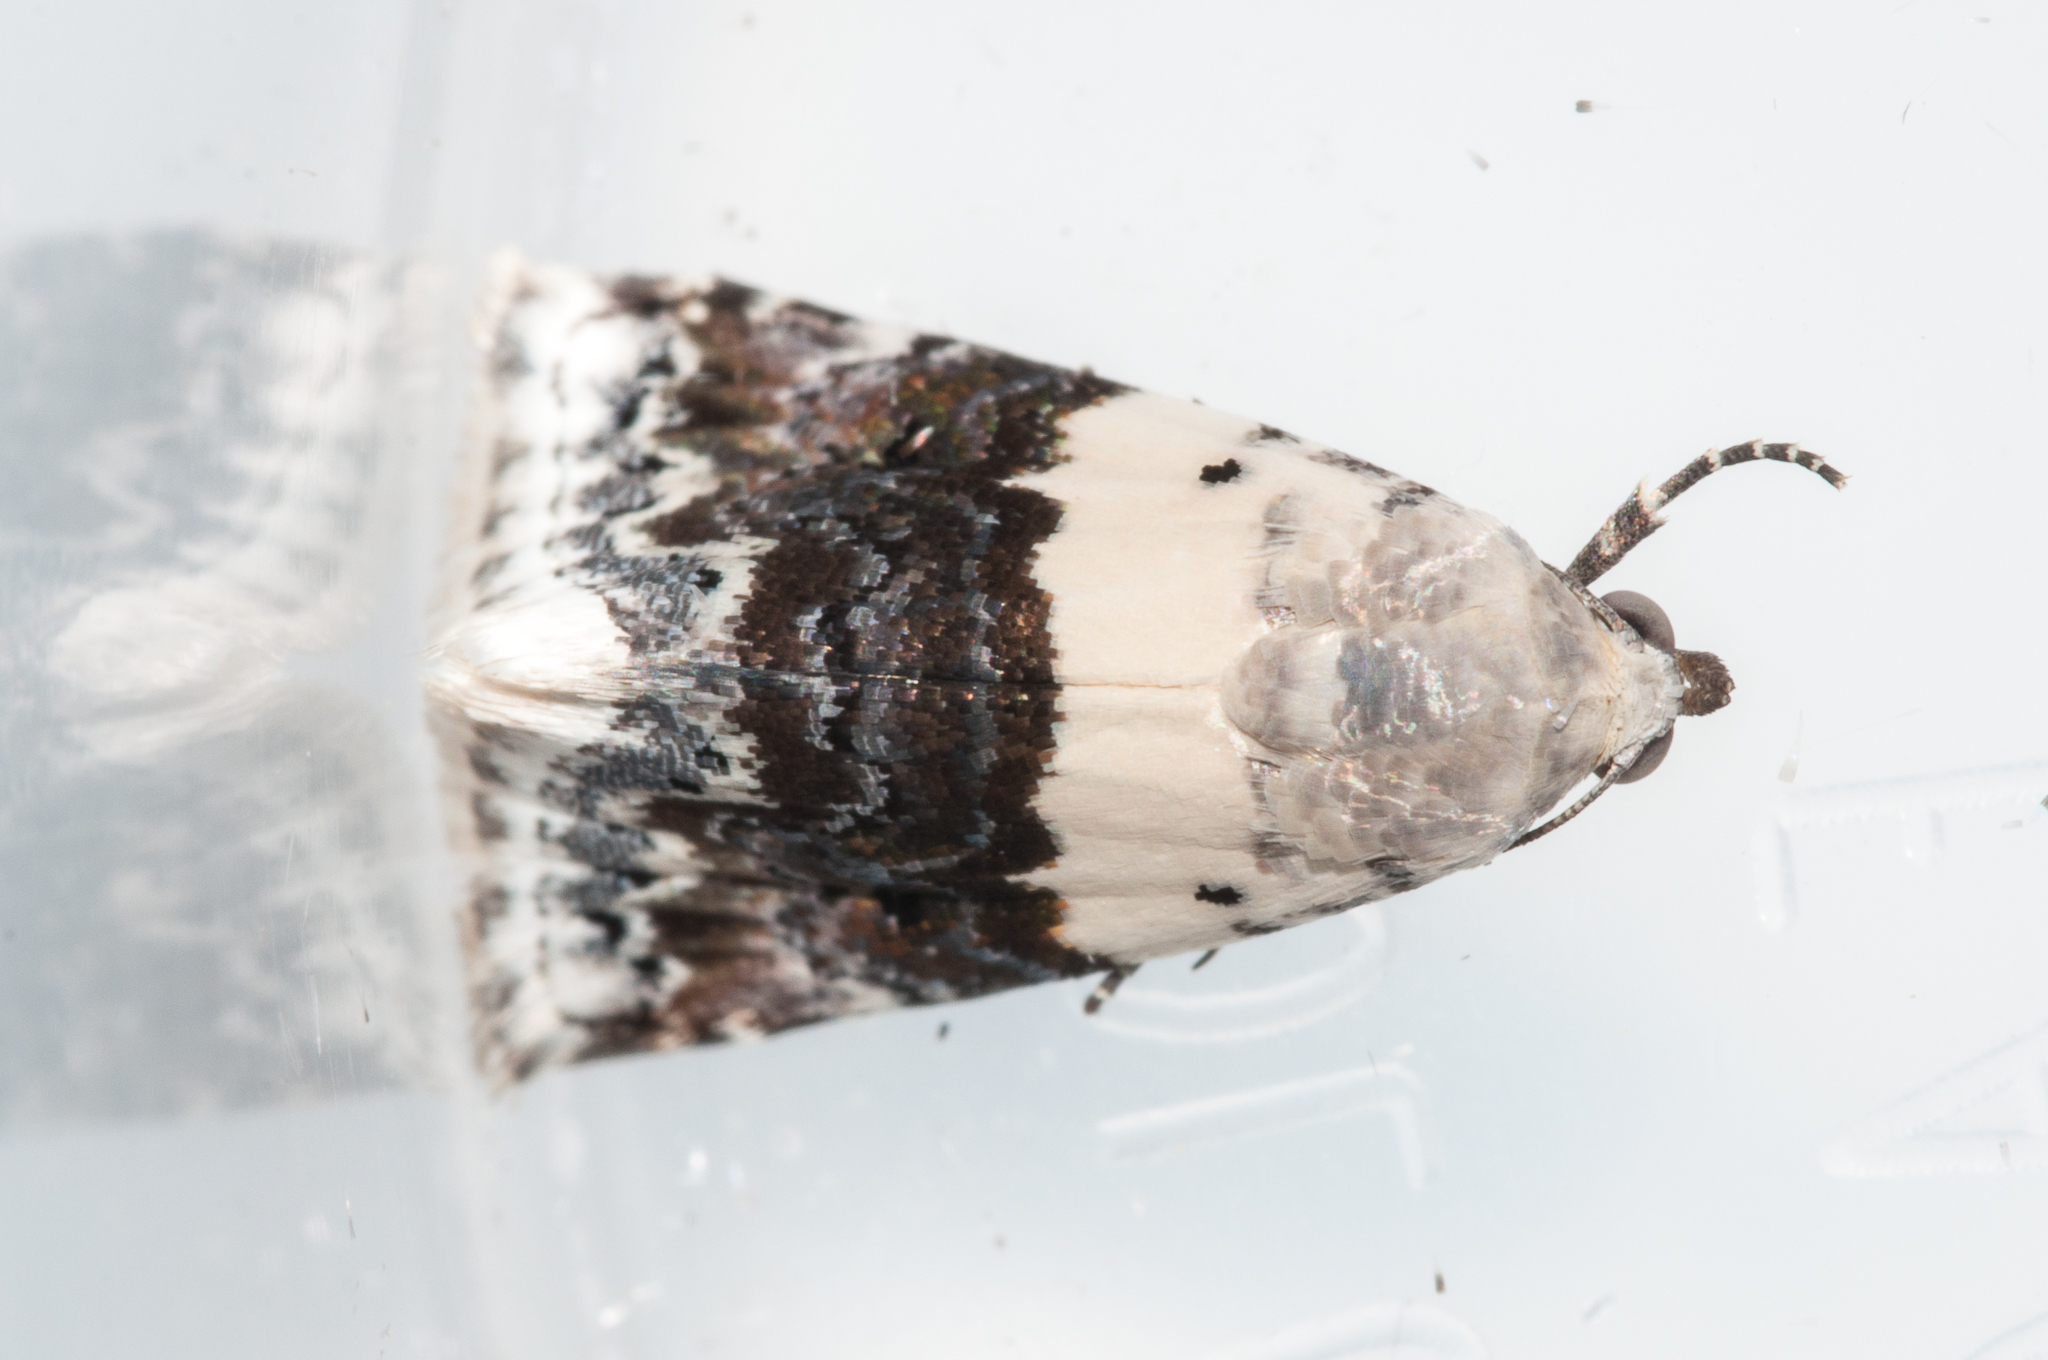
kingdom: Animalia
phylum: Arthropoda
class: Insecta
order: Lepidoptera
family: Noctuidae
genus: Eublemma
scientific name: Eublemma bipartita
